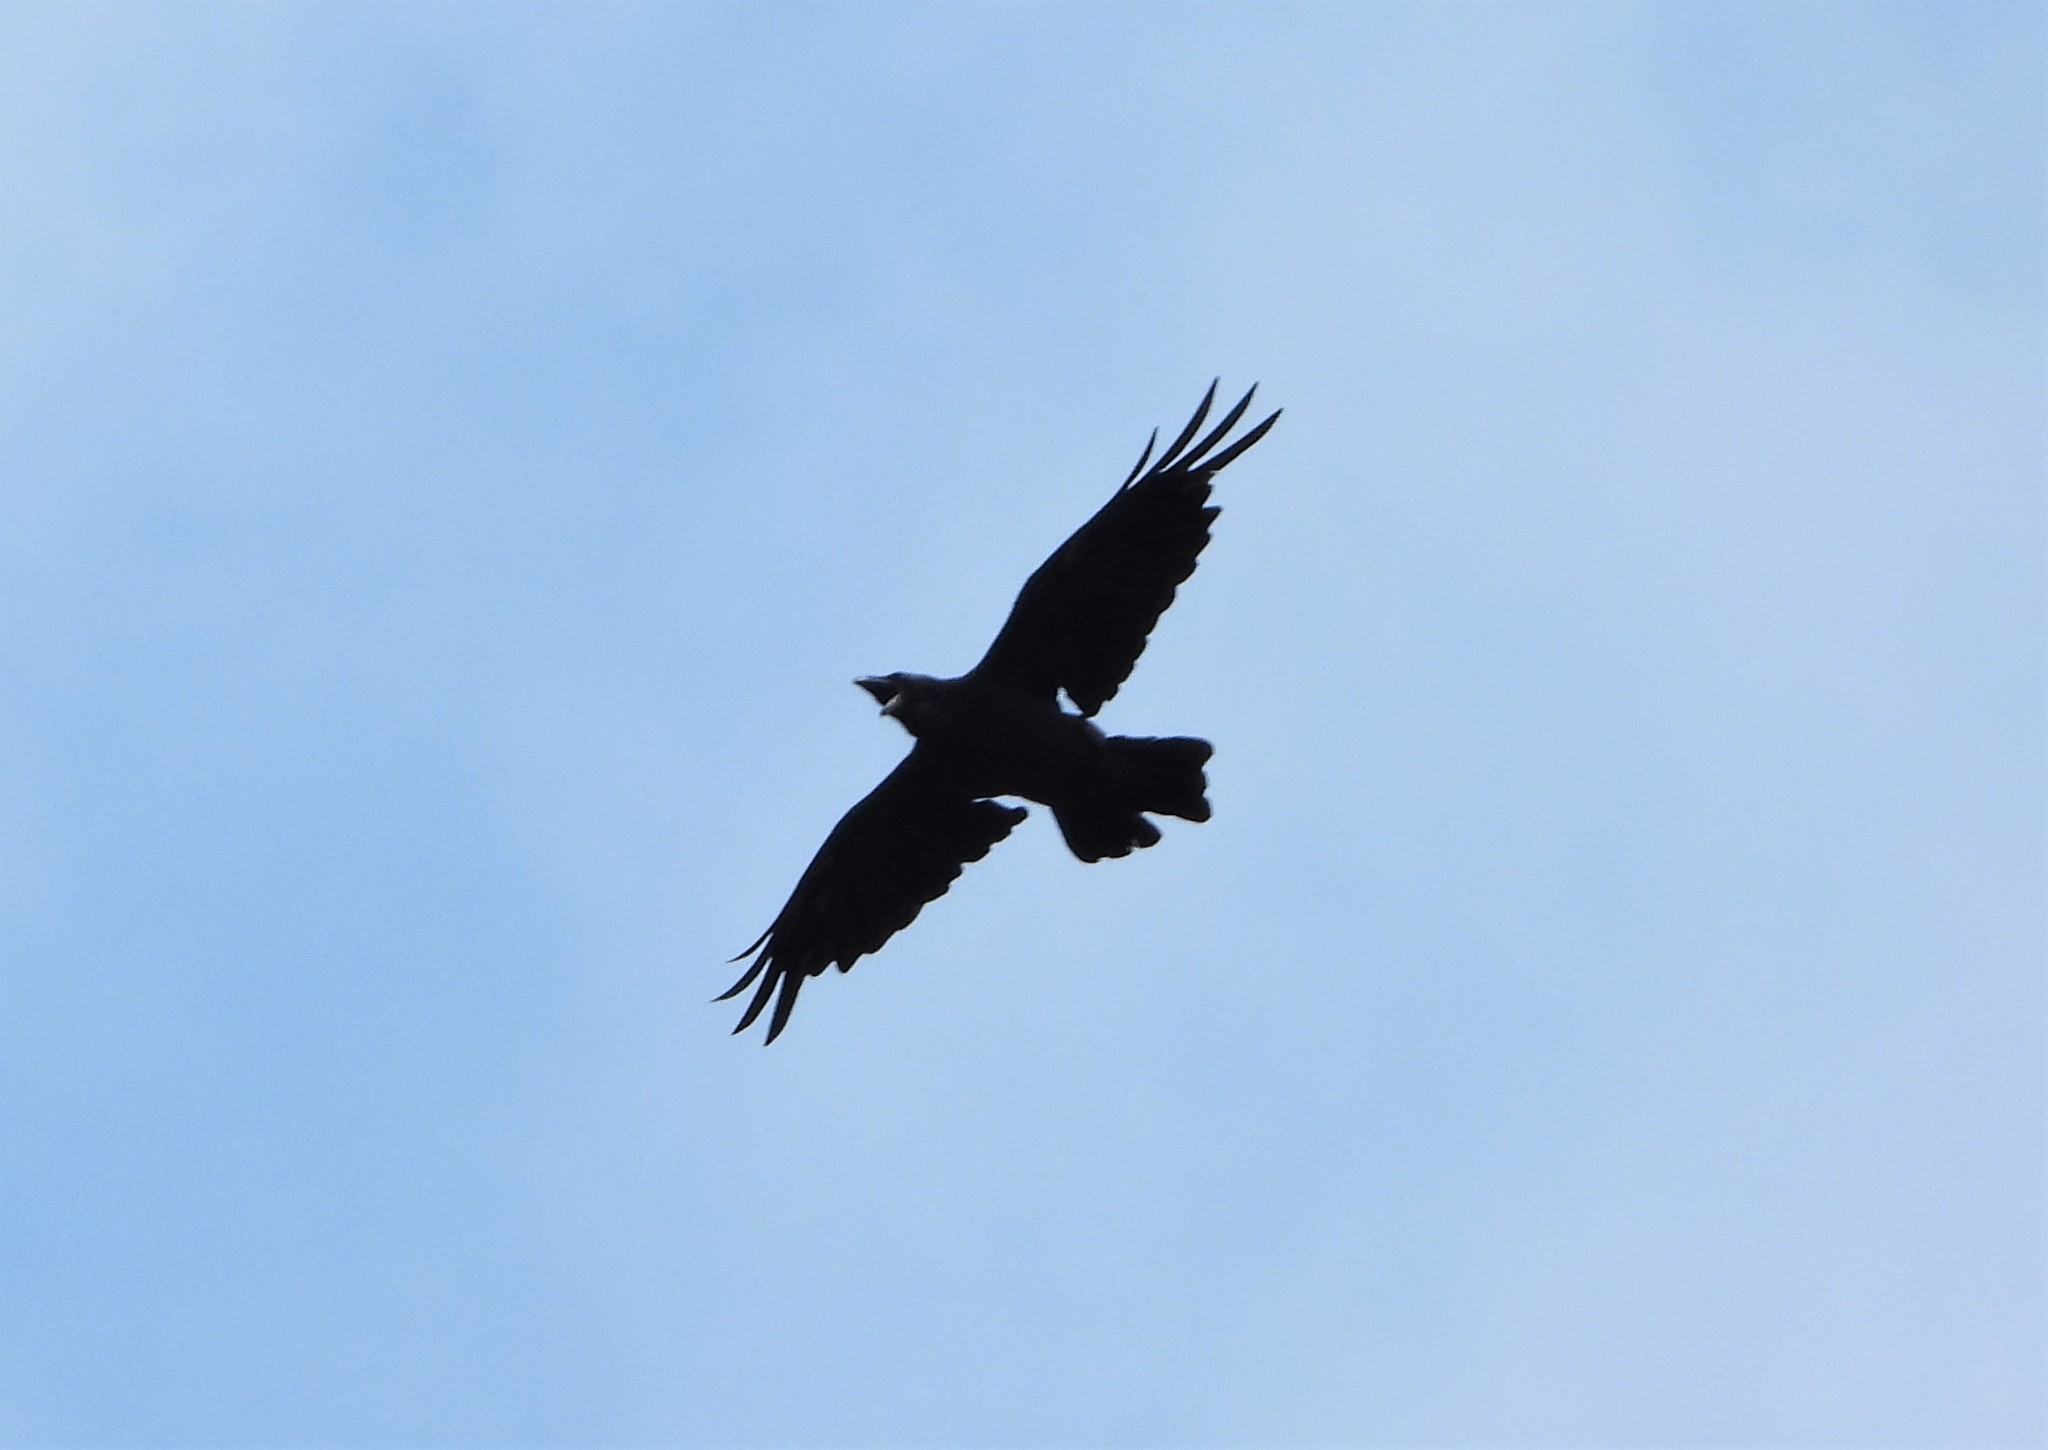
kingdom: Animalia
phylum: Chordata
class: Aves
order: Passeriformes
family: Corvidae
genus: Corvus
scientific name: Corvus corax
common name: Common raven
